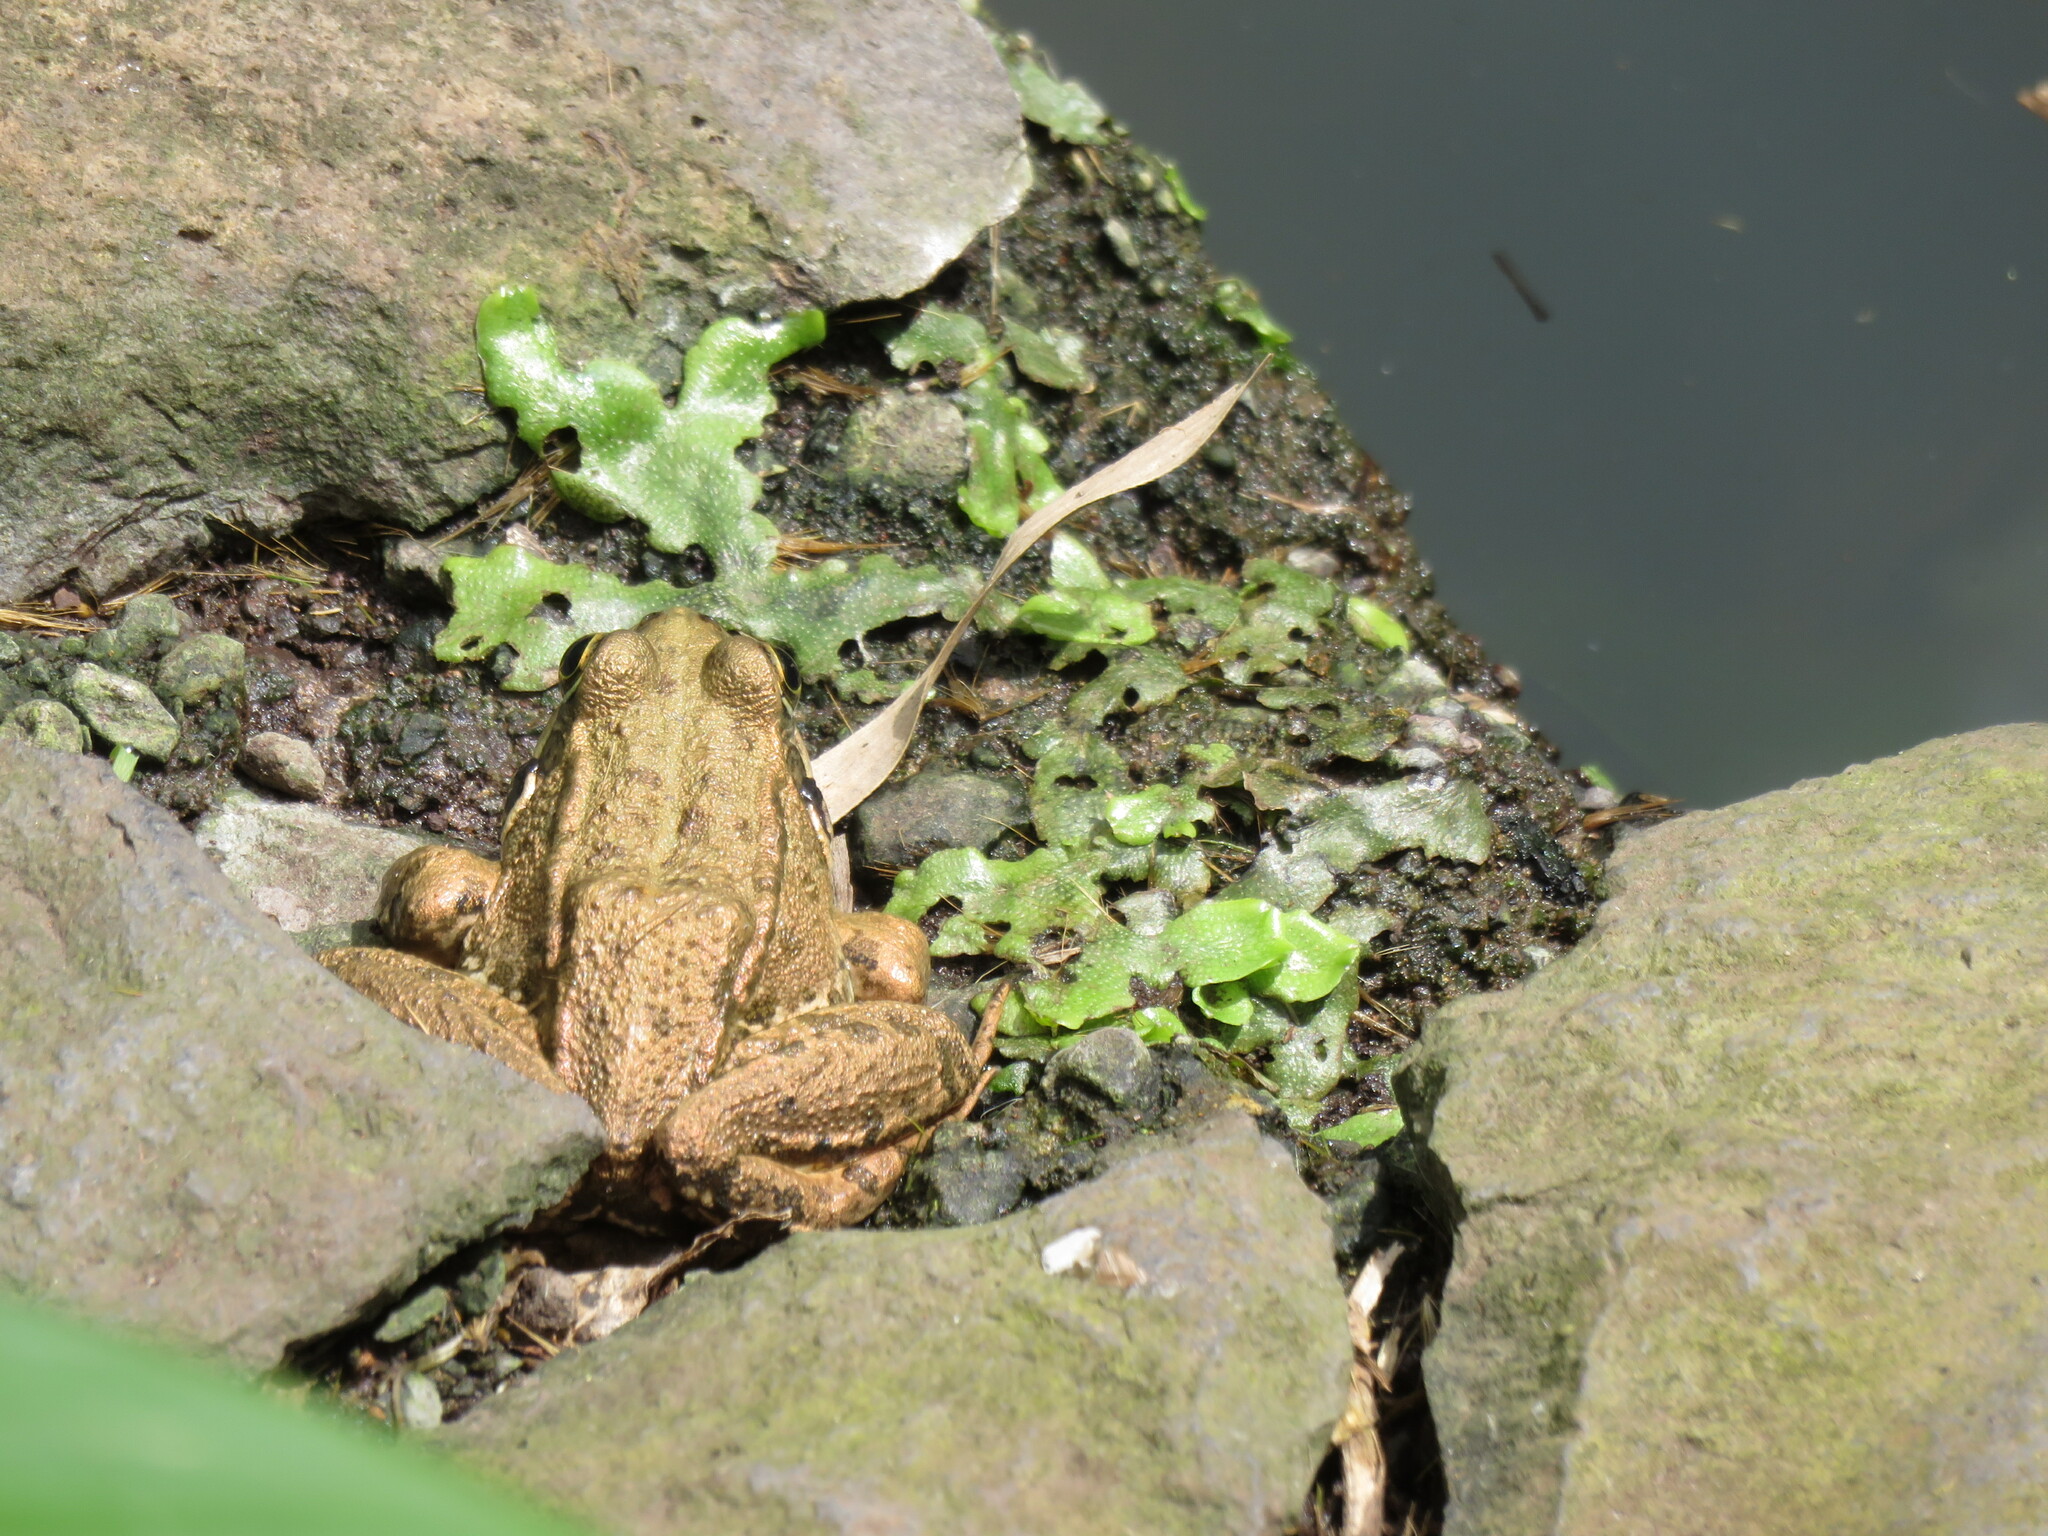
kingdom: Animalia
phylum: Chordata
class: Amphibia
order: Anura
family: Ranidae
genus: Pelophylax
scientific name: Pelophylax perezi
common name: Perez's frog
